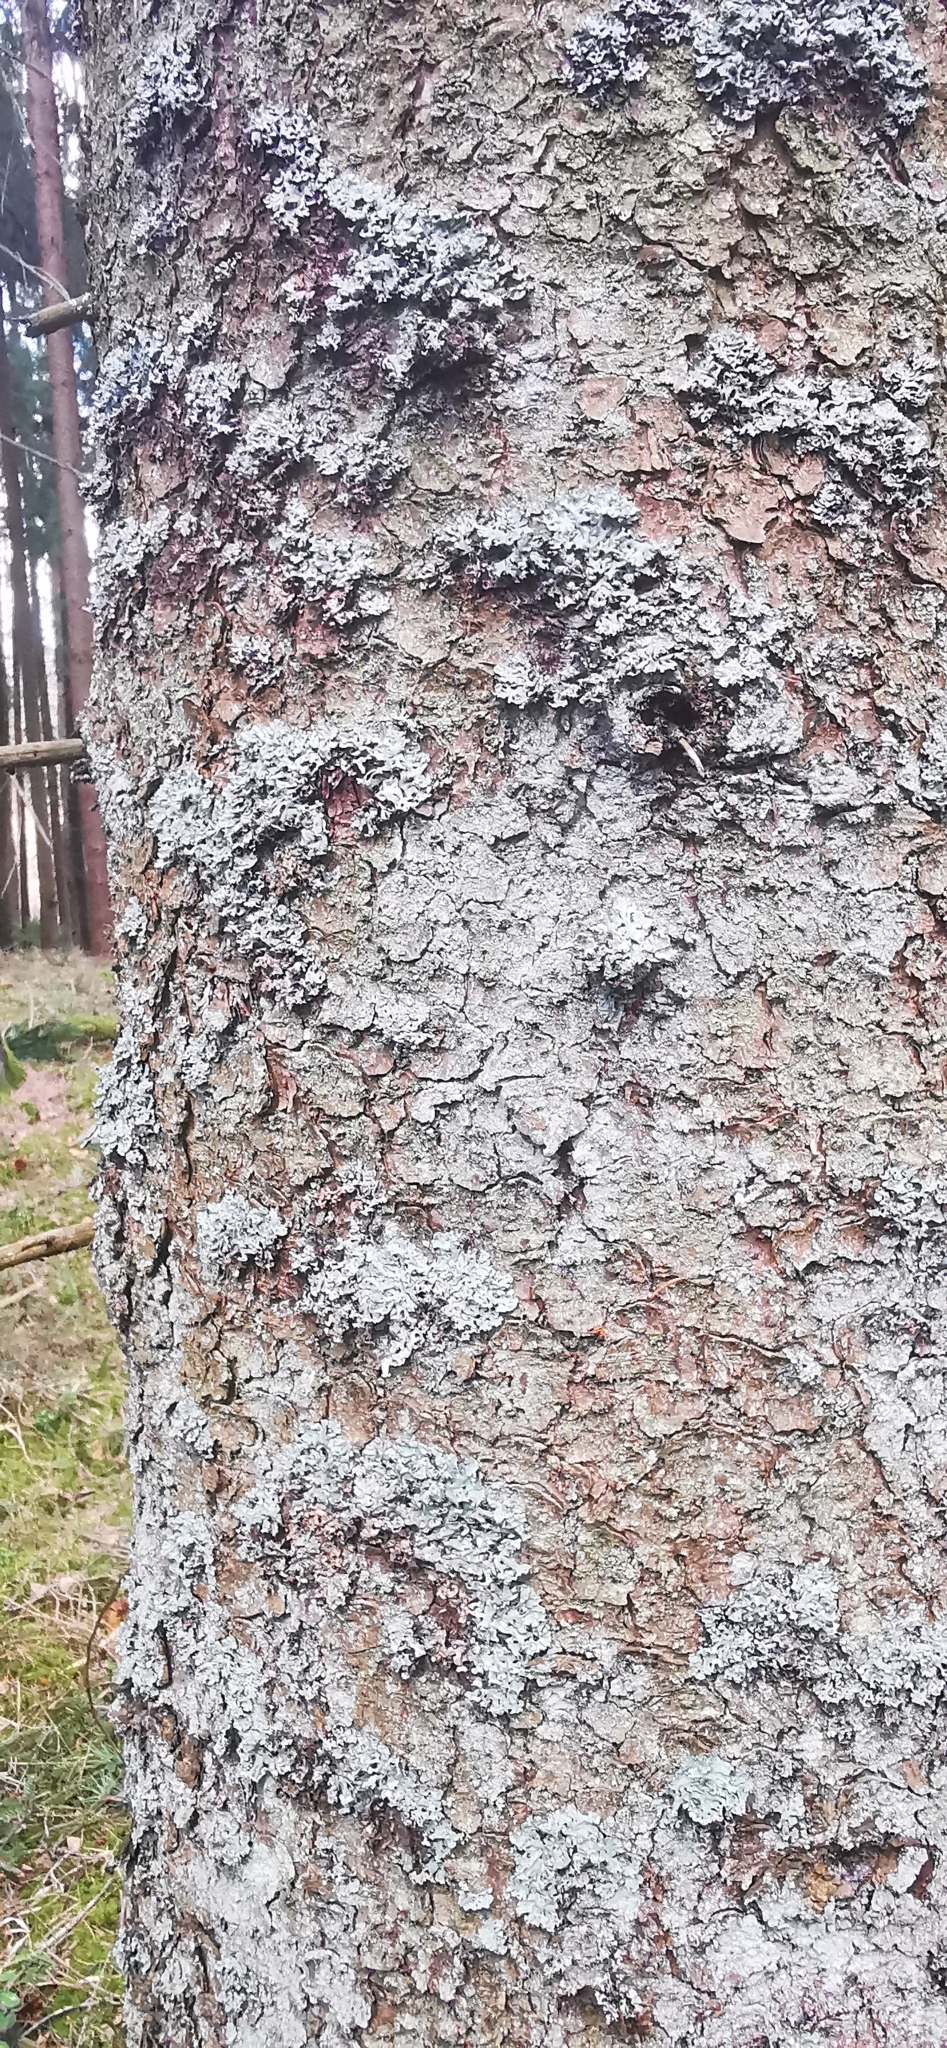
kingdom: Fungi
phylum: Ascomycota
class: Lecanoromycetes
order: Lecanorales
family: Parmeliaceae
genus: Hypogymnia
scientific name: Hypogymnia physodes
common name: Dark crottle
